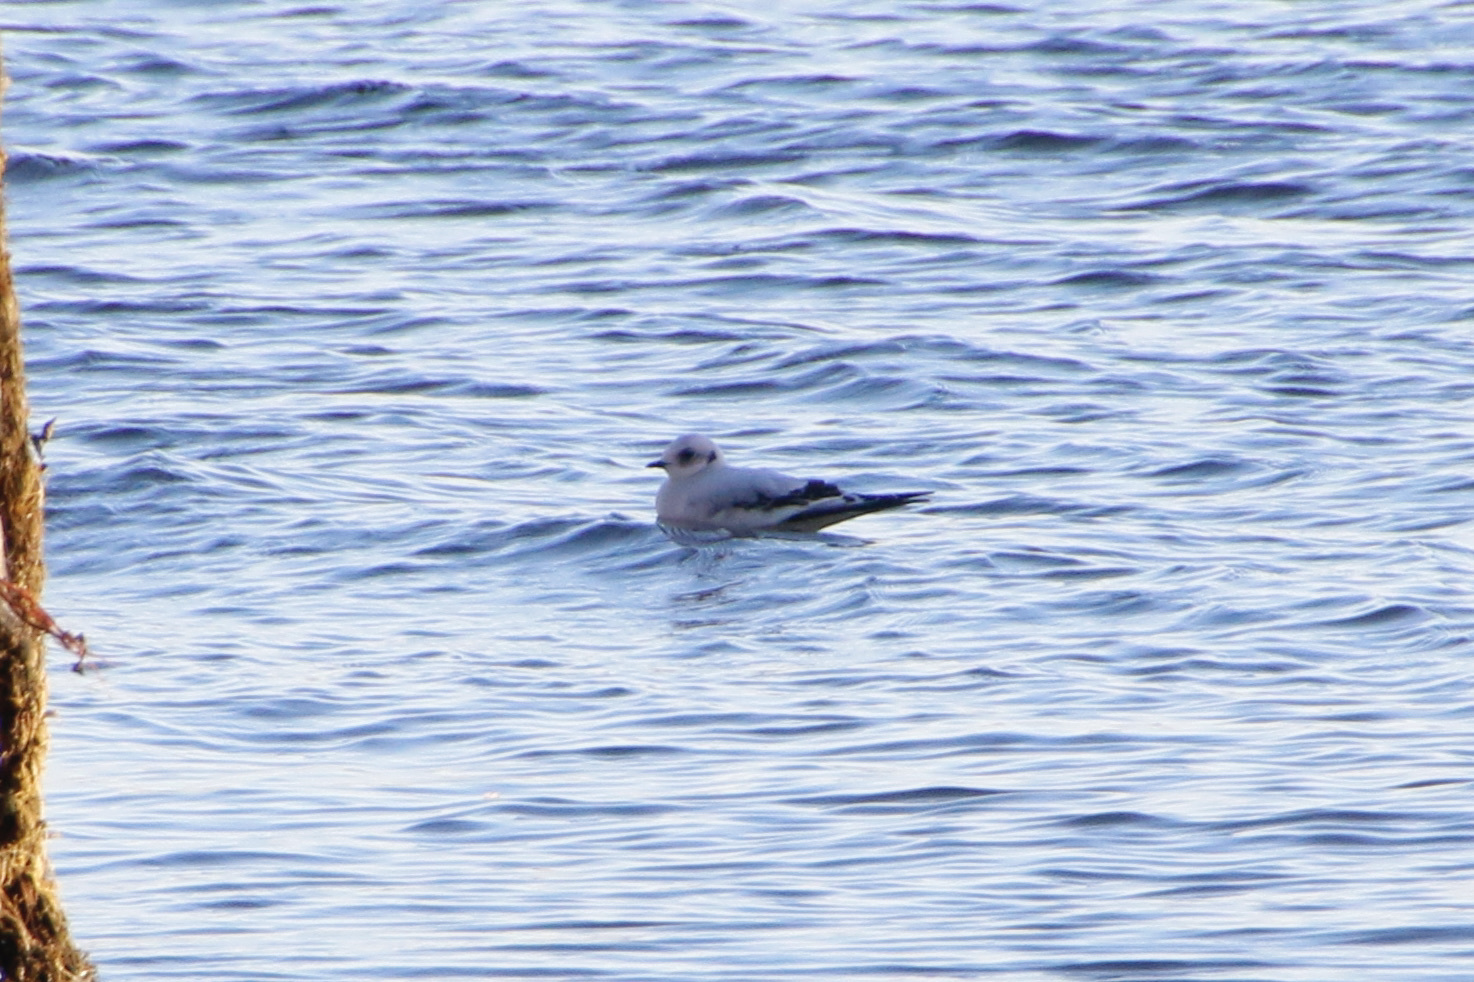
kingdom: Animalia
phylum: Chordata
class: Aves
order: Charadriiformes
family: Laridae
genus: Rhodostethia
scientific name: Rhodostethia rosea
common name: Ross's gull
